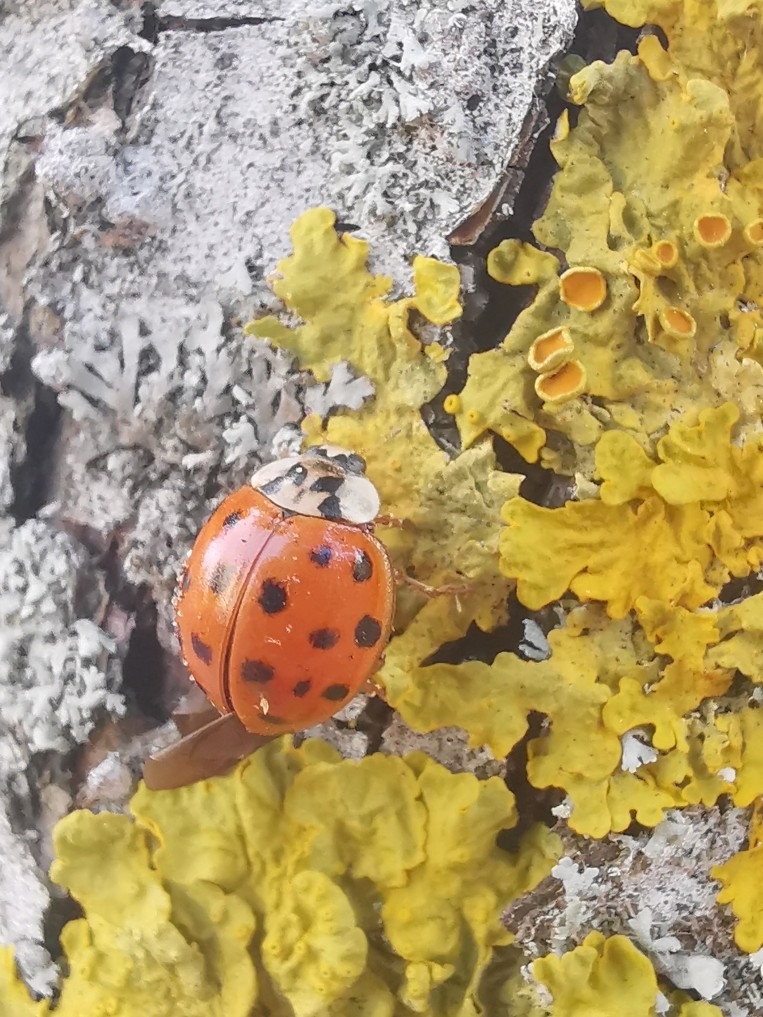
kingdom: Animalia
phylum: Arthropoda
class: Insecta
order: Coleoptera
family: Coccinellidae
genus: Harmonia
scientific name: Harmonia axyridis
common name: Harlequin ladybird
